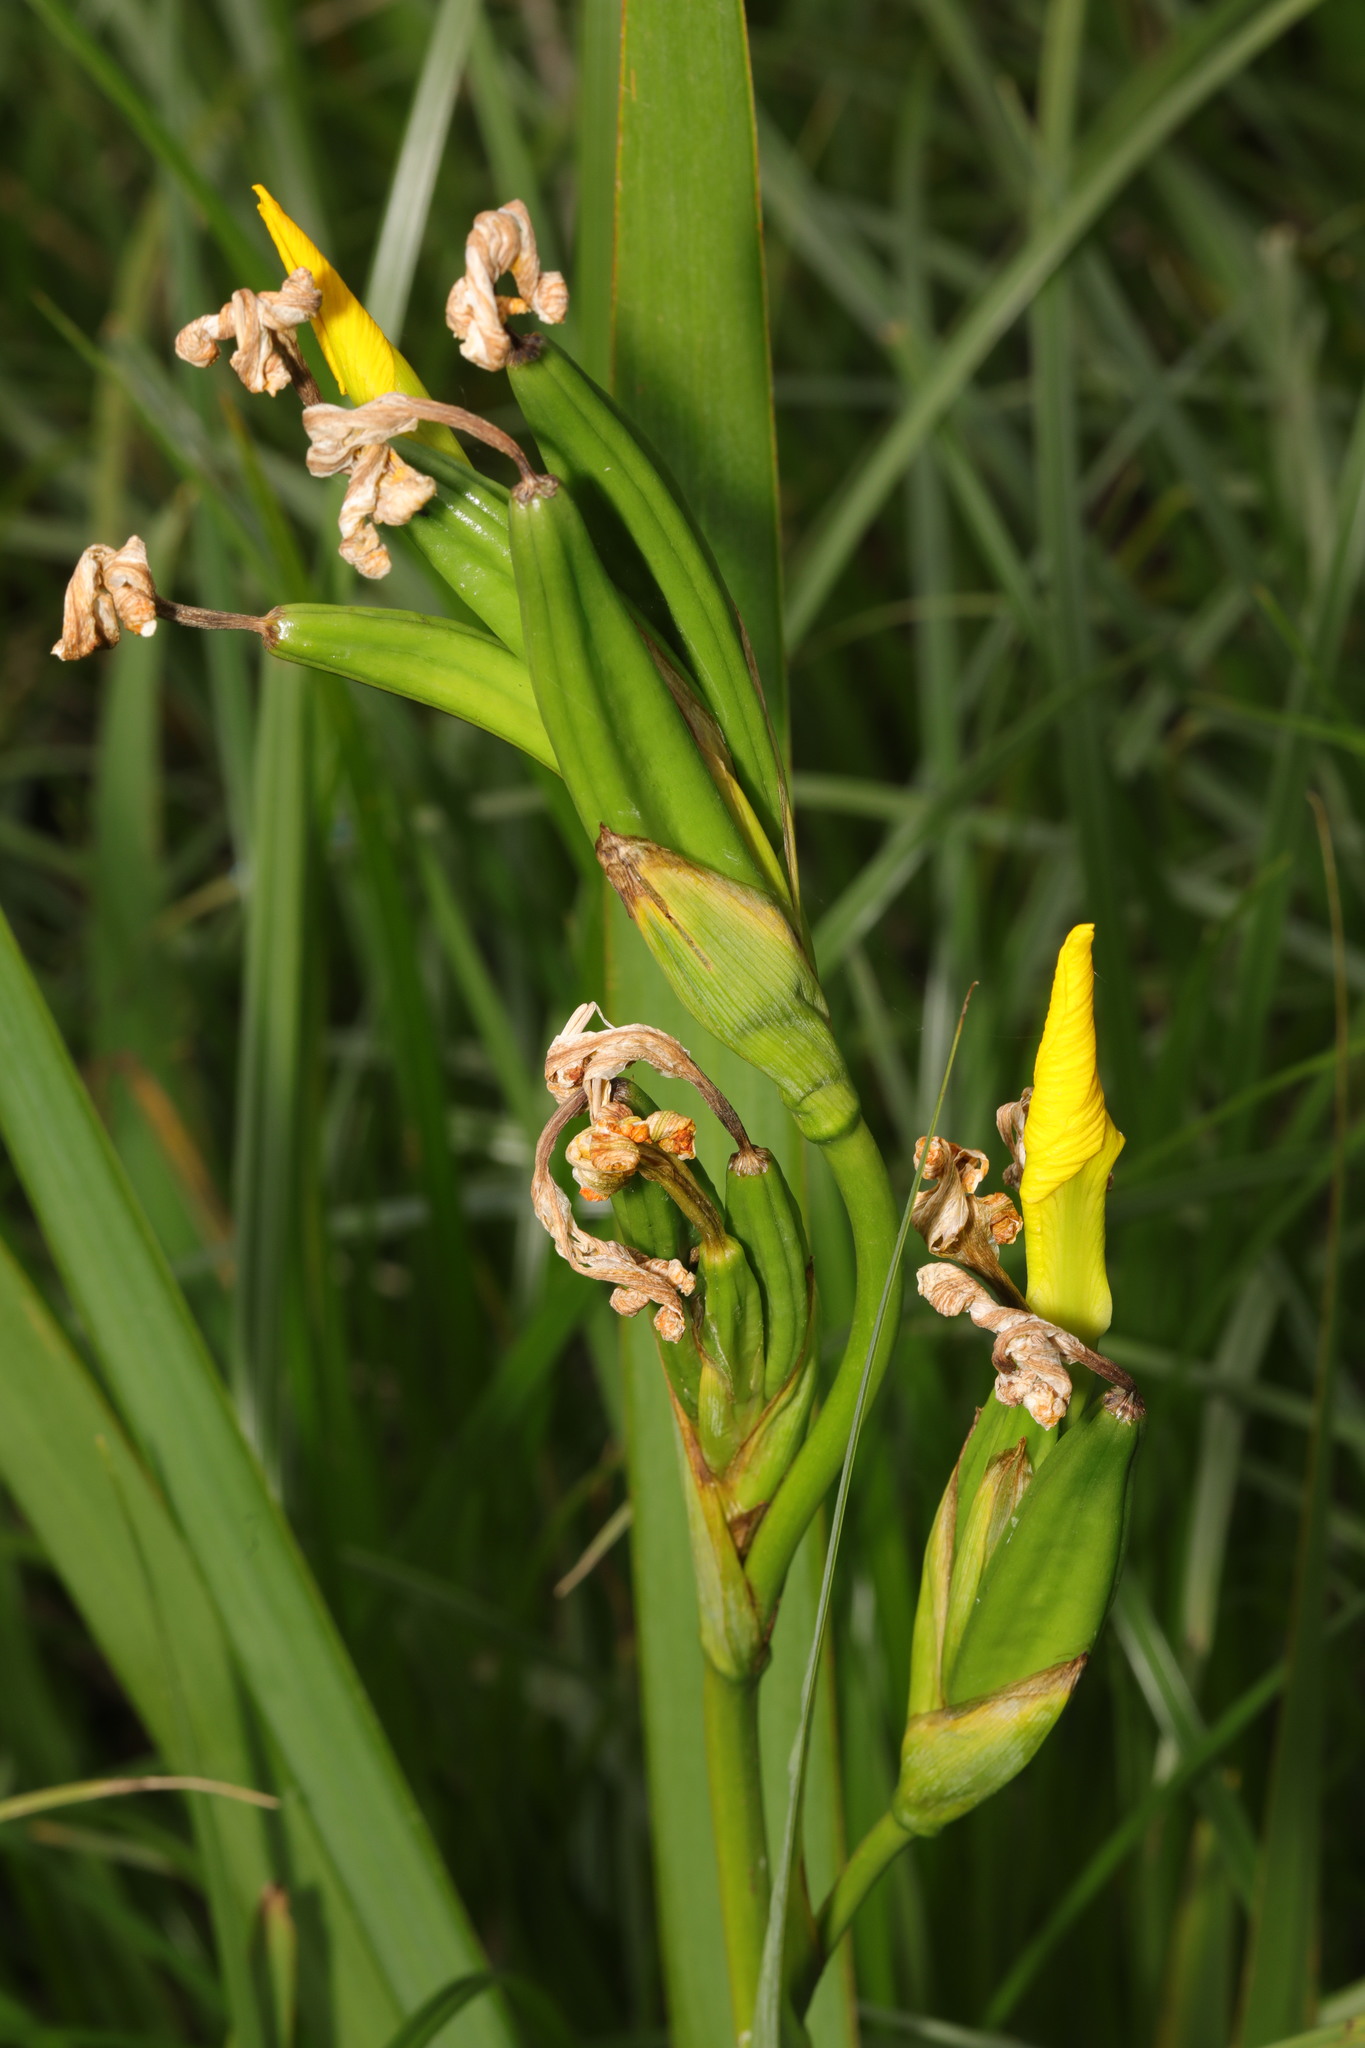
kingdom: Plantae
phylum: Tracheophyta
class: Liliopsida
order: Asparagales
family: Iridaceae
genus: Iris
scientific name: Iris pseudacorus
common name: Yellow flag
